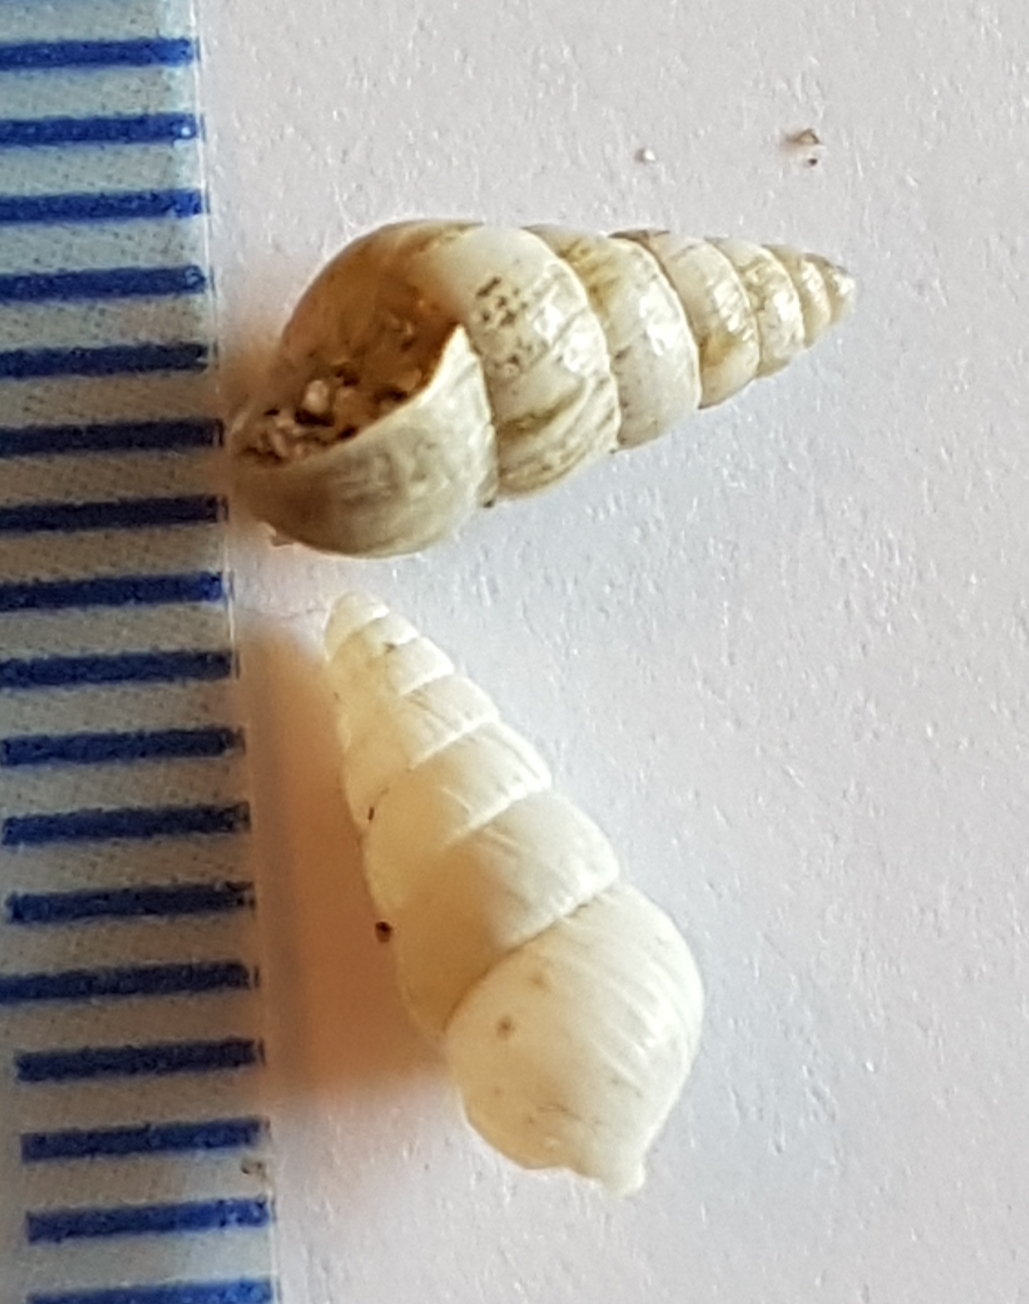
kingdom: Animalia
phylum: Mollusca
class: Gastropoda
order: Stylommatophora
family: Geomitridae
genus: Cochlicella
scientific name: Cochlicella acuta
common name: Pointed snail
